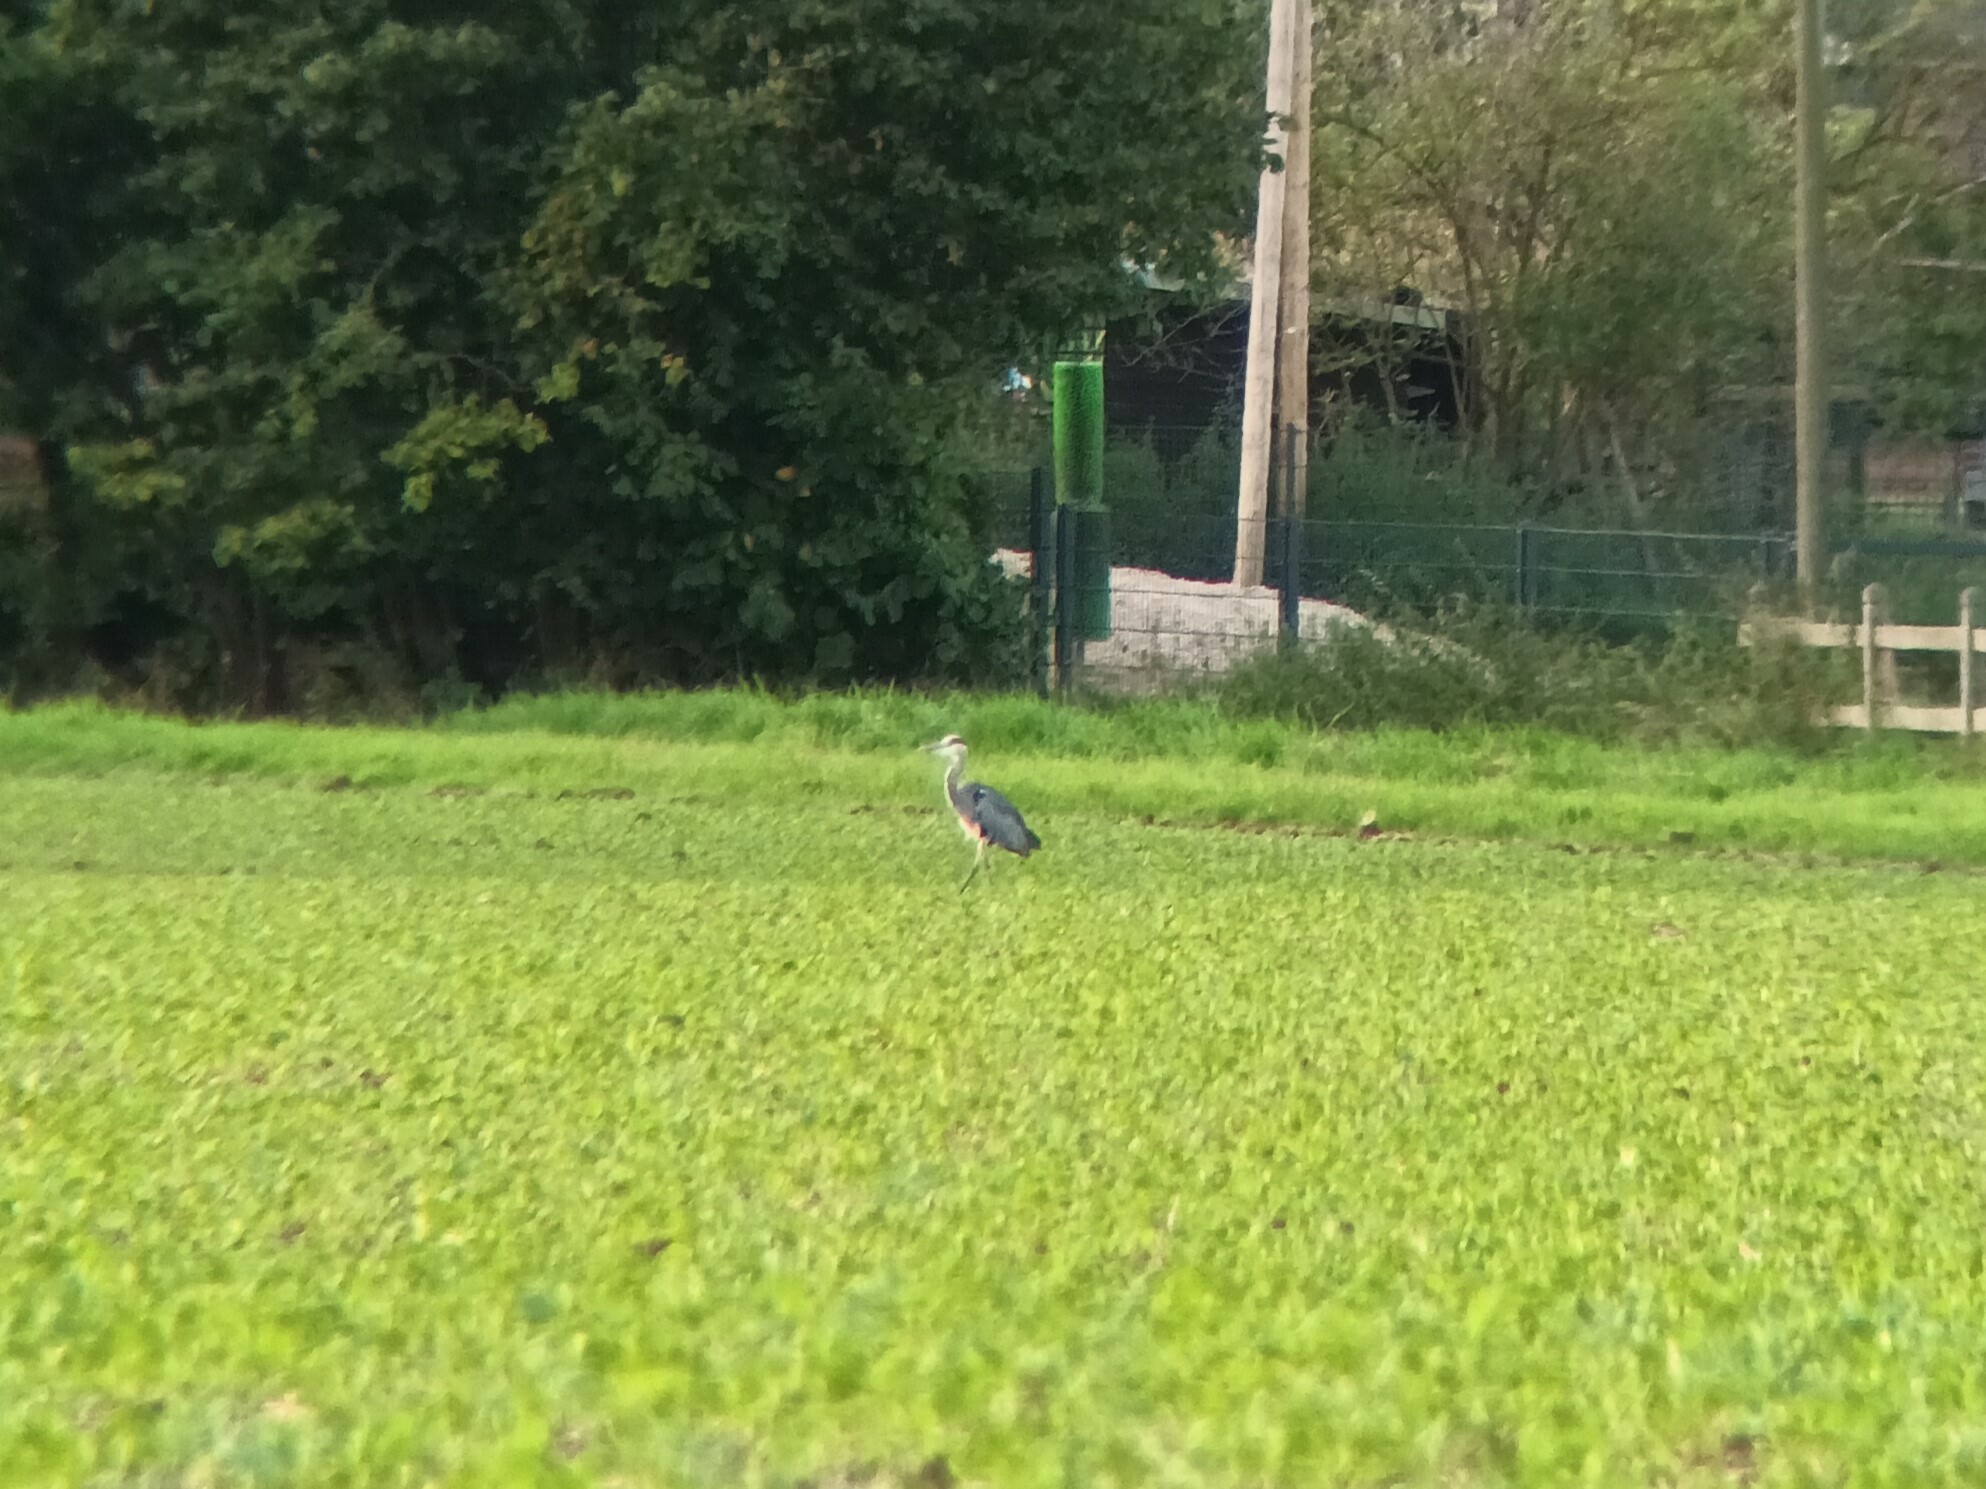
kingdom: Animalia
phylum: Chordata
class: Aves
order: Pelecaniformes
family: Ardeidae
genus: Ardea
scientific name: Ardea cinerea
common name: Grey heron
